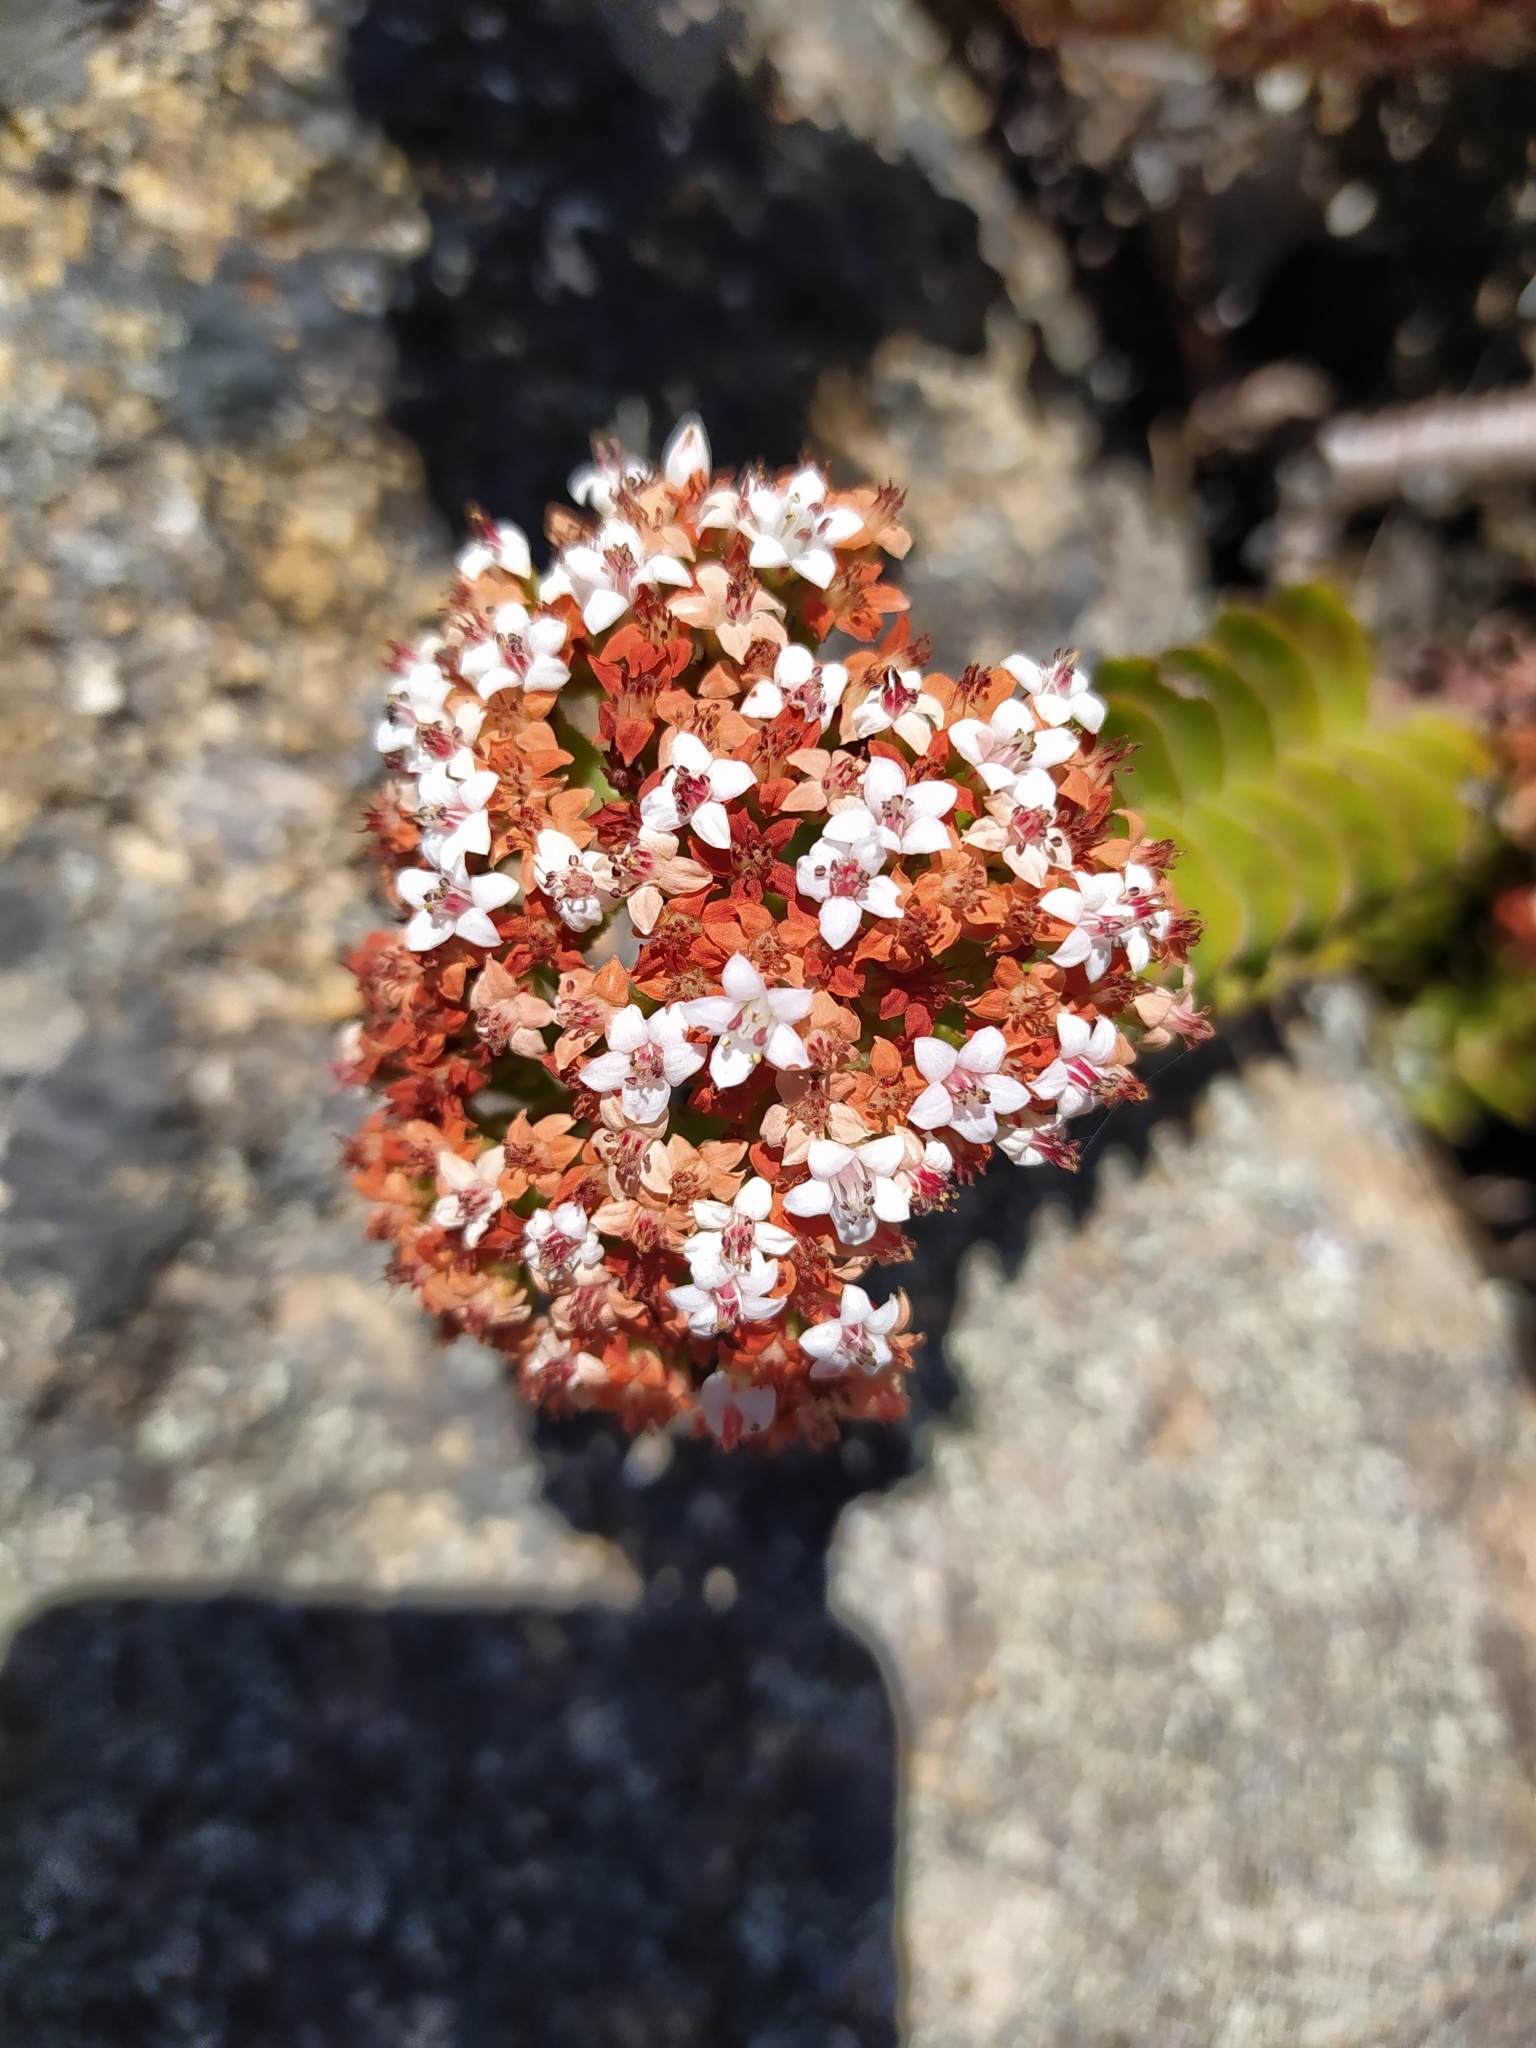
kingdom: Plantae
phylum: Tracheophyta
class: Magnoliopsida
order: Saxifragales
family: Crassulaceae
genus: Crassula
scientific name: Crassula undulata
